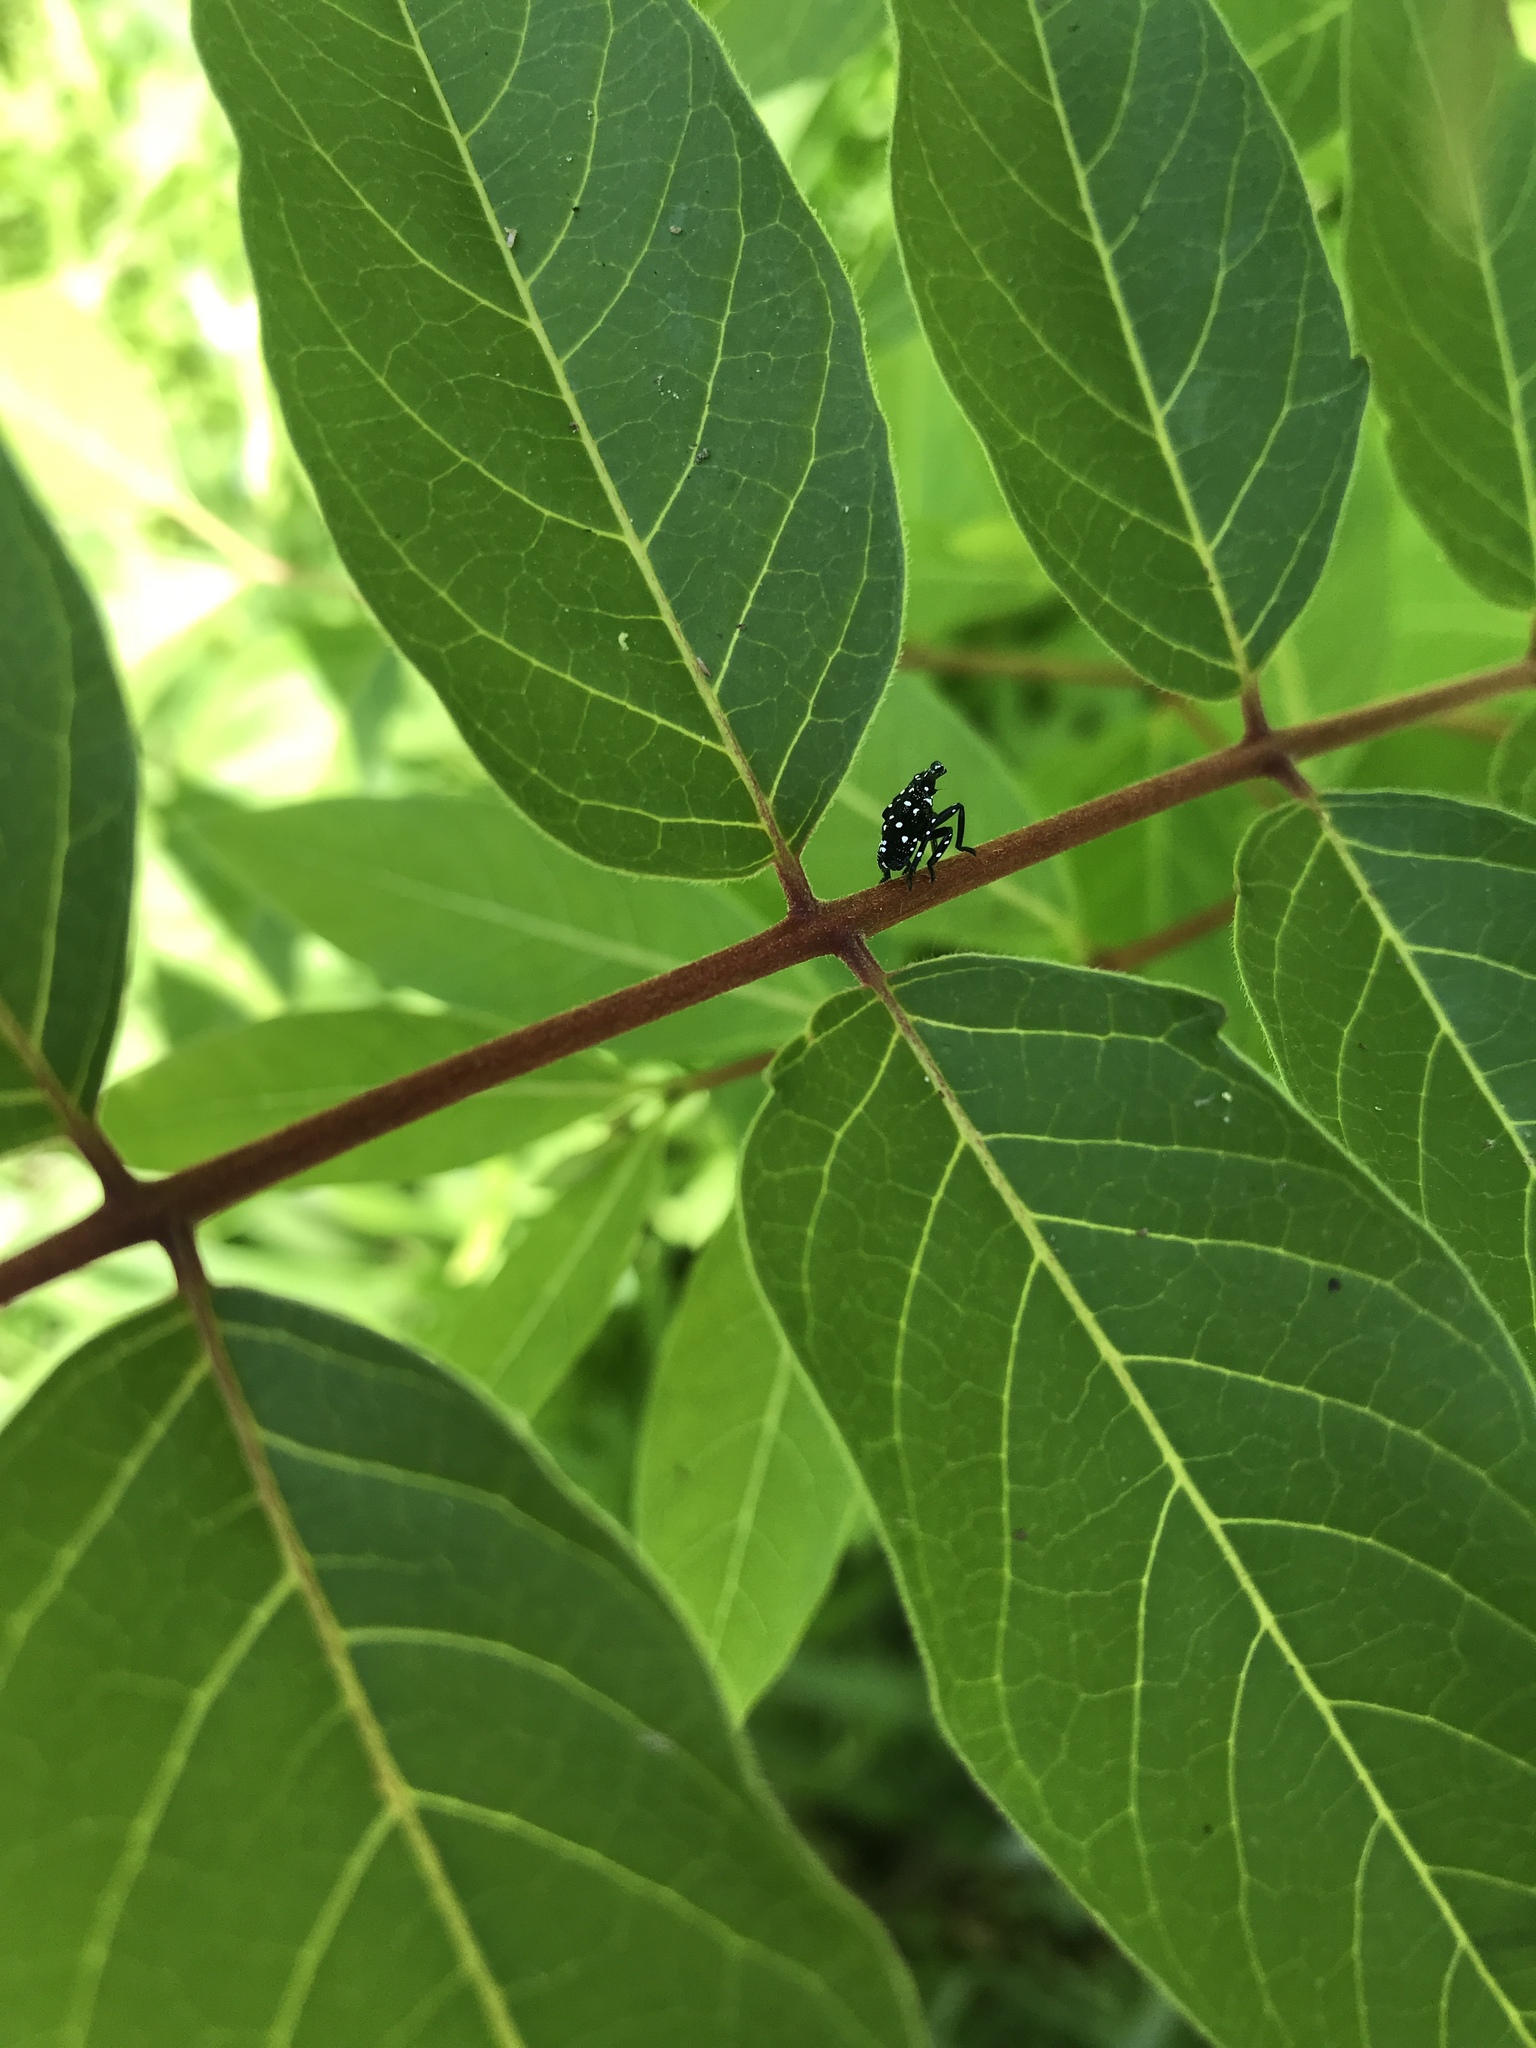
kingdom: Animalia
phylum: Arthropoda
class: Insecta
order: Hemiptera
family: Fulgoridae
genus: Lycorma
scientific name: Lycorma delicatula
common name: Spotted lanternfly
